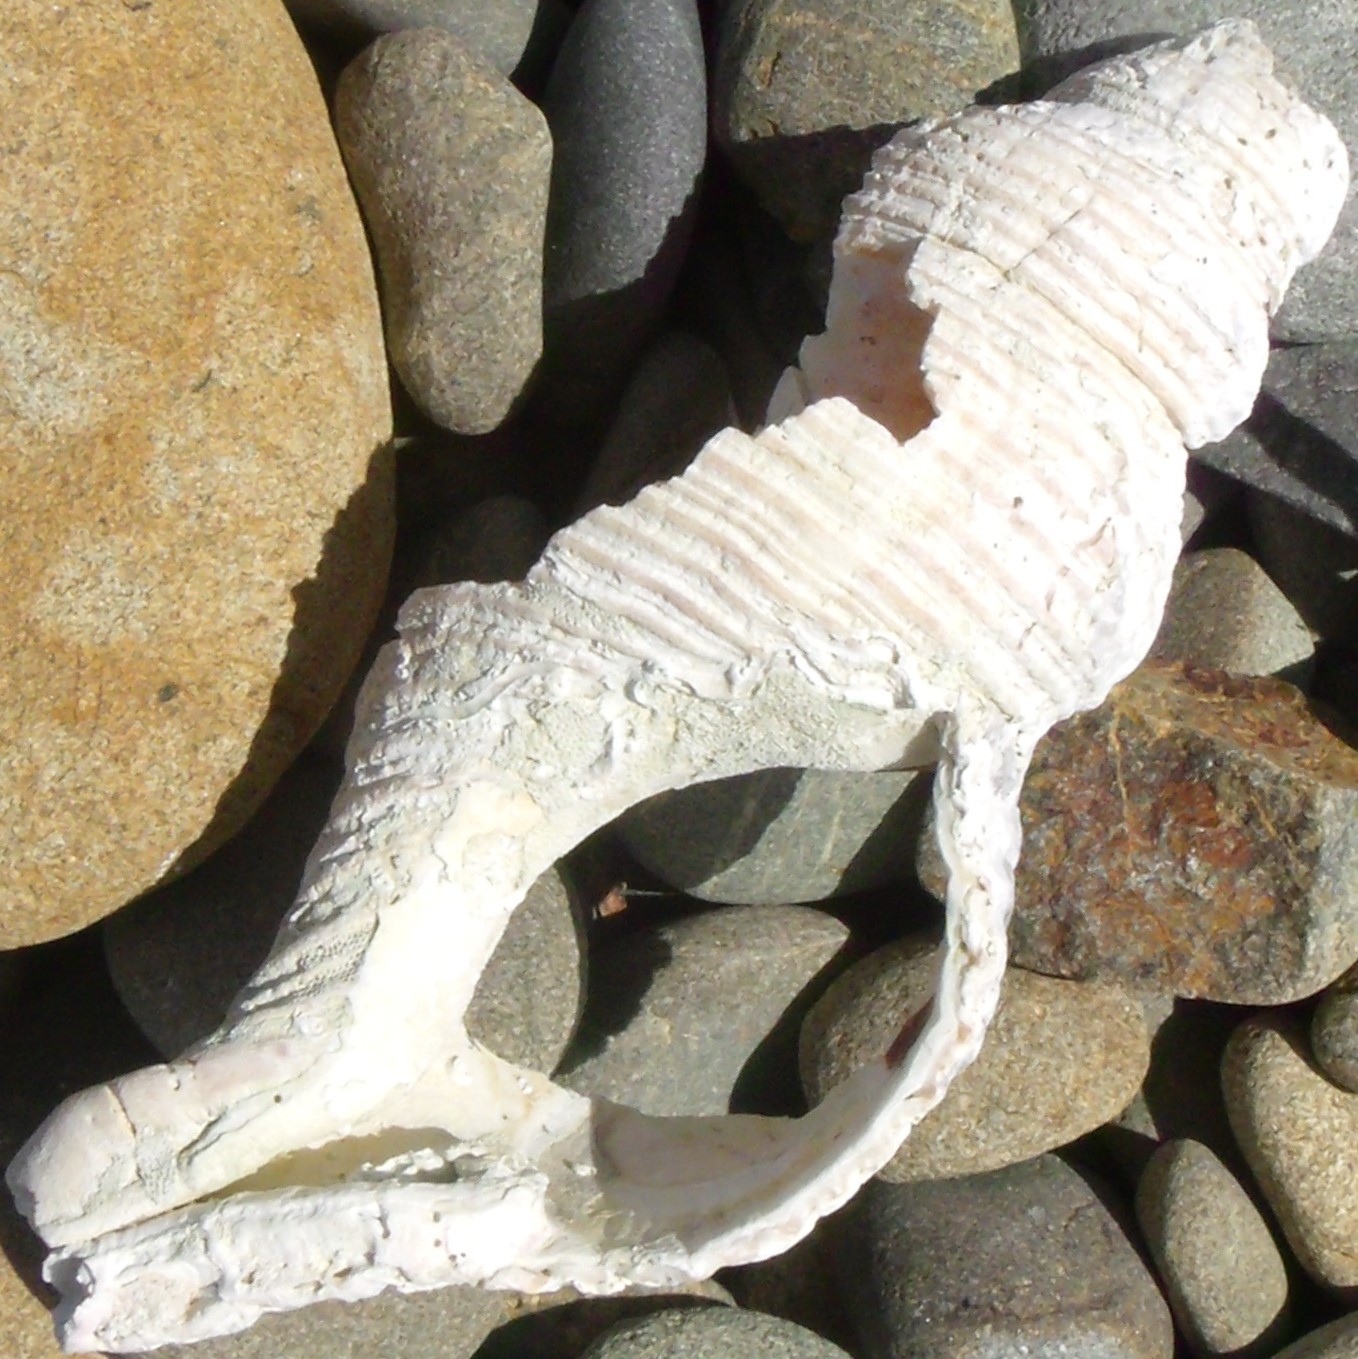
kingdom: Animalia
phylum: Mollusca
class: Gastropoda
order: Neogastropoda
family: Austrosiphonidae
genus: Penion
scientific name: Penion sulcatus
